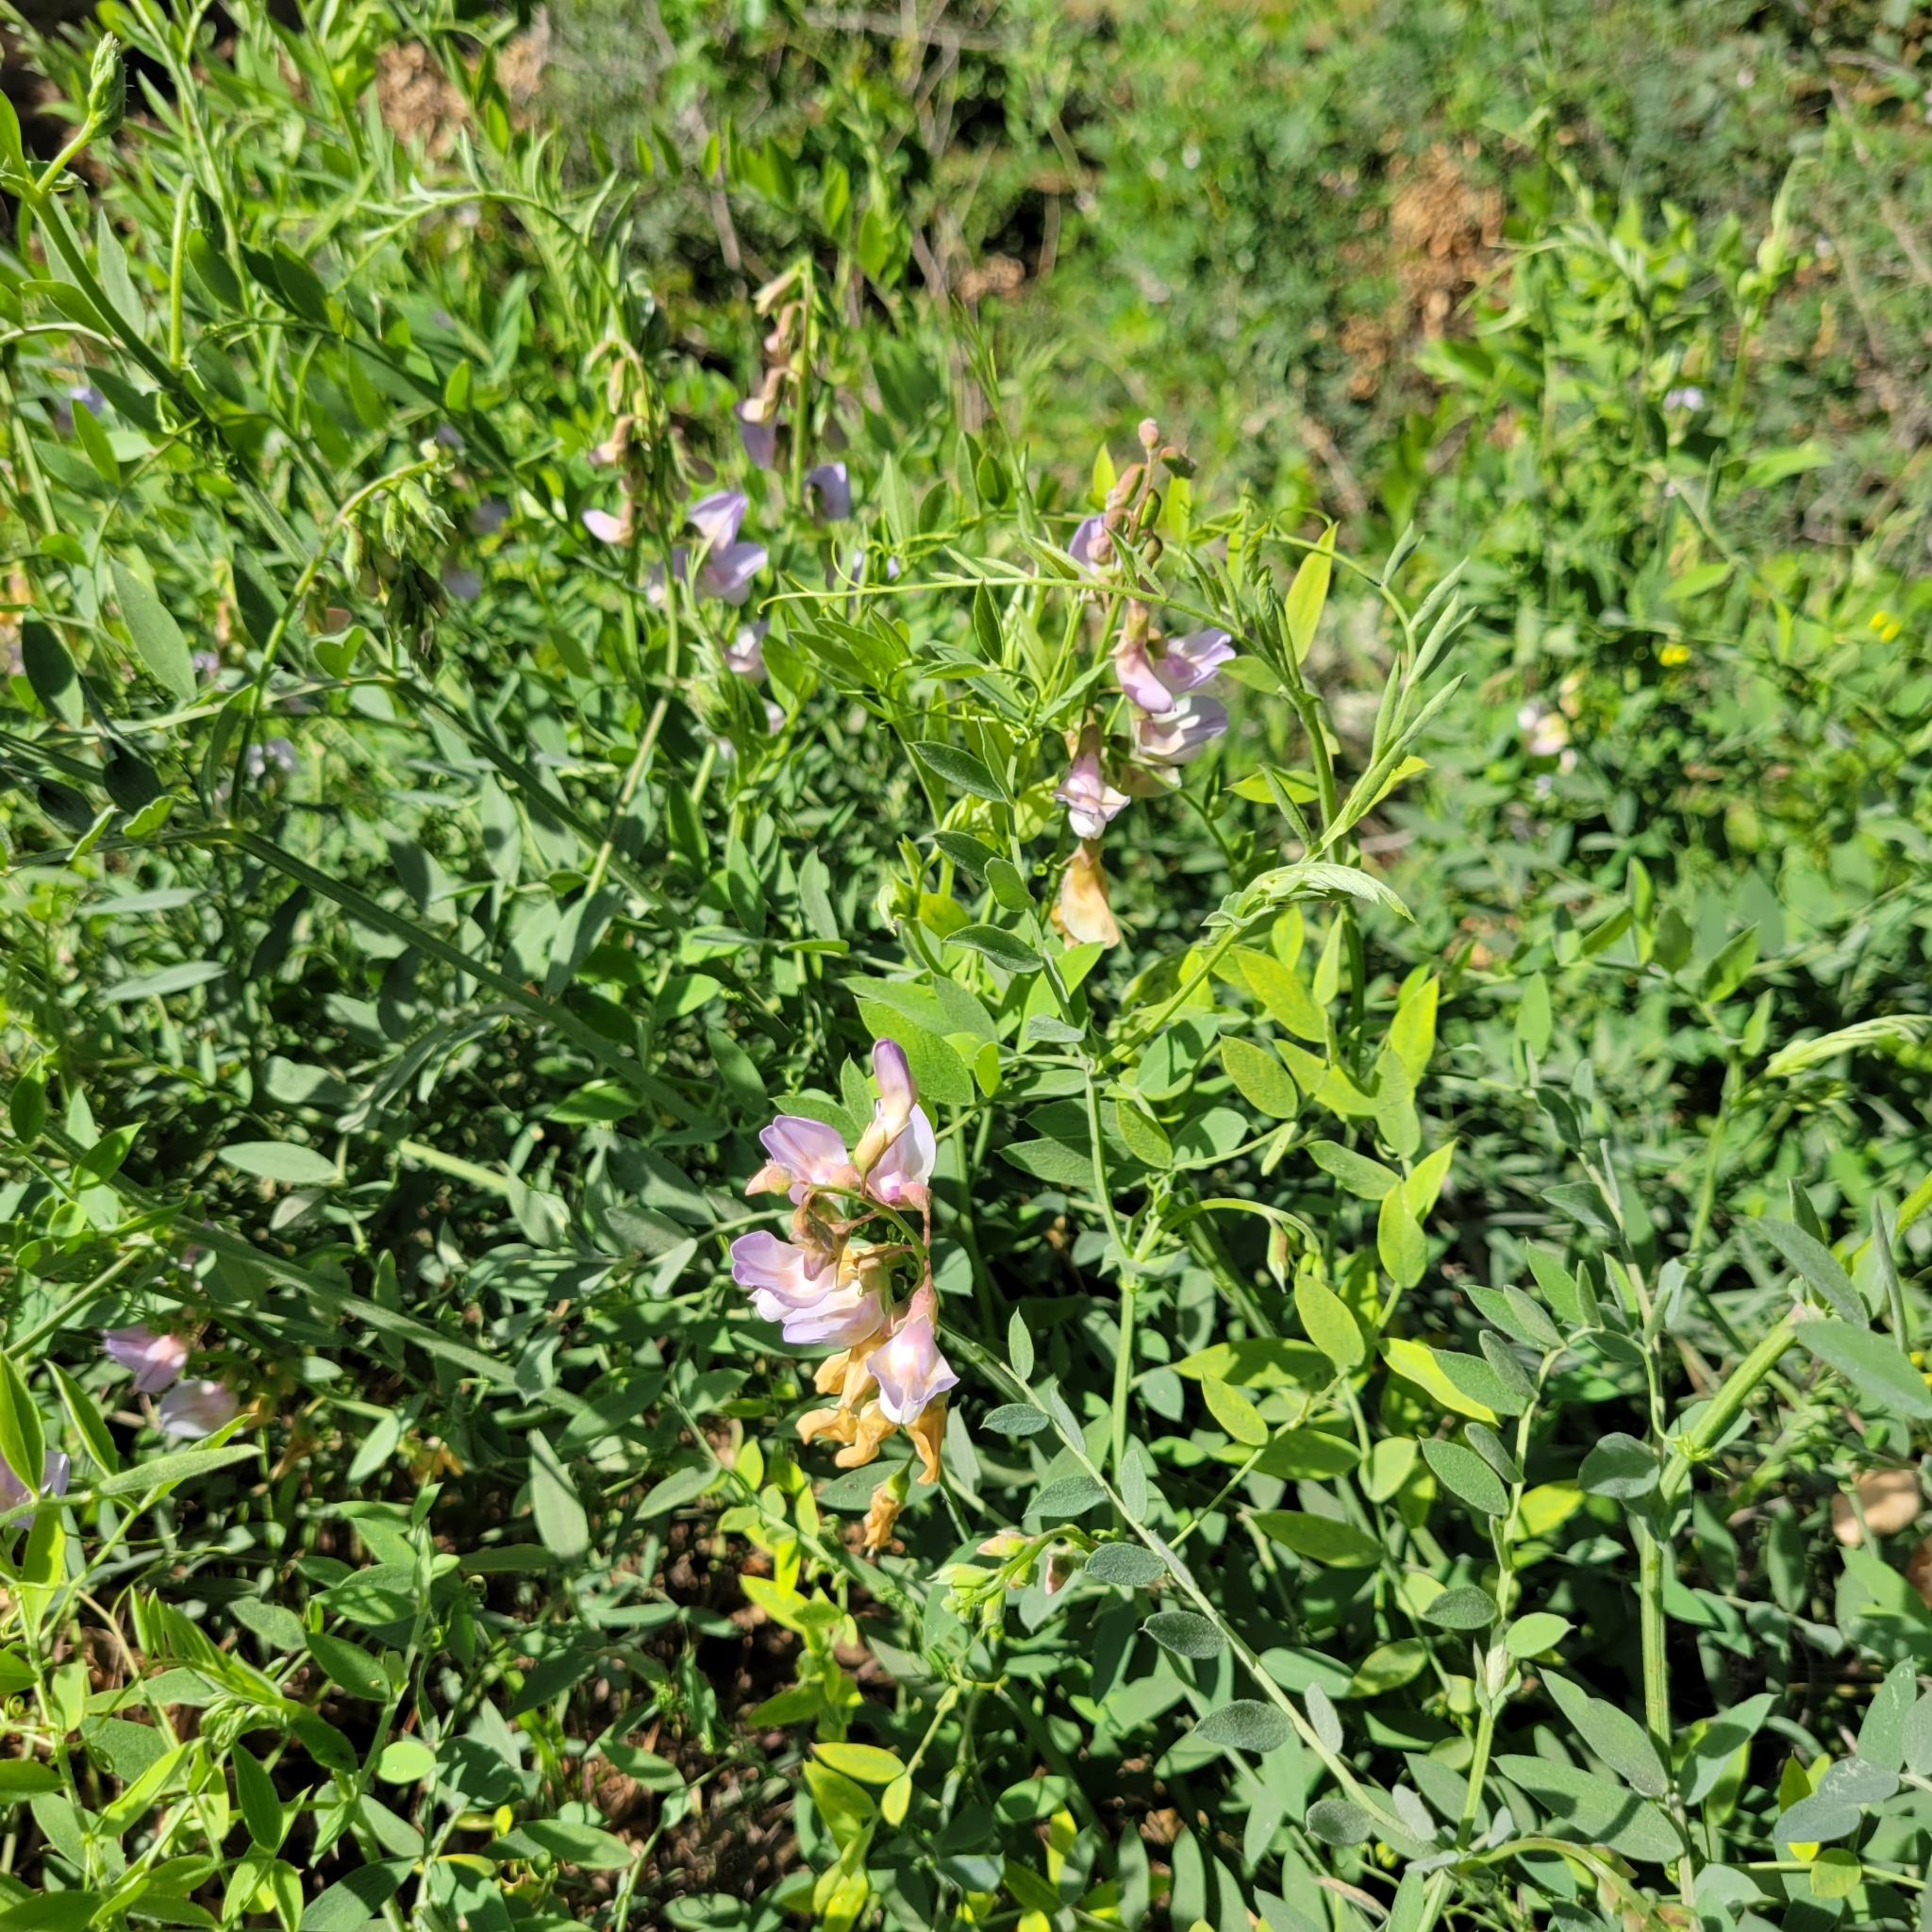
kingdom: Plantae
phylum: Tracheophyta
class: Magnoliopsida
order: Fabales
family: Fabaceae
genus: Lathyrus
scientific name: Lathyrus vestitus
